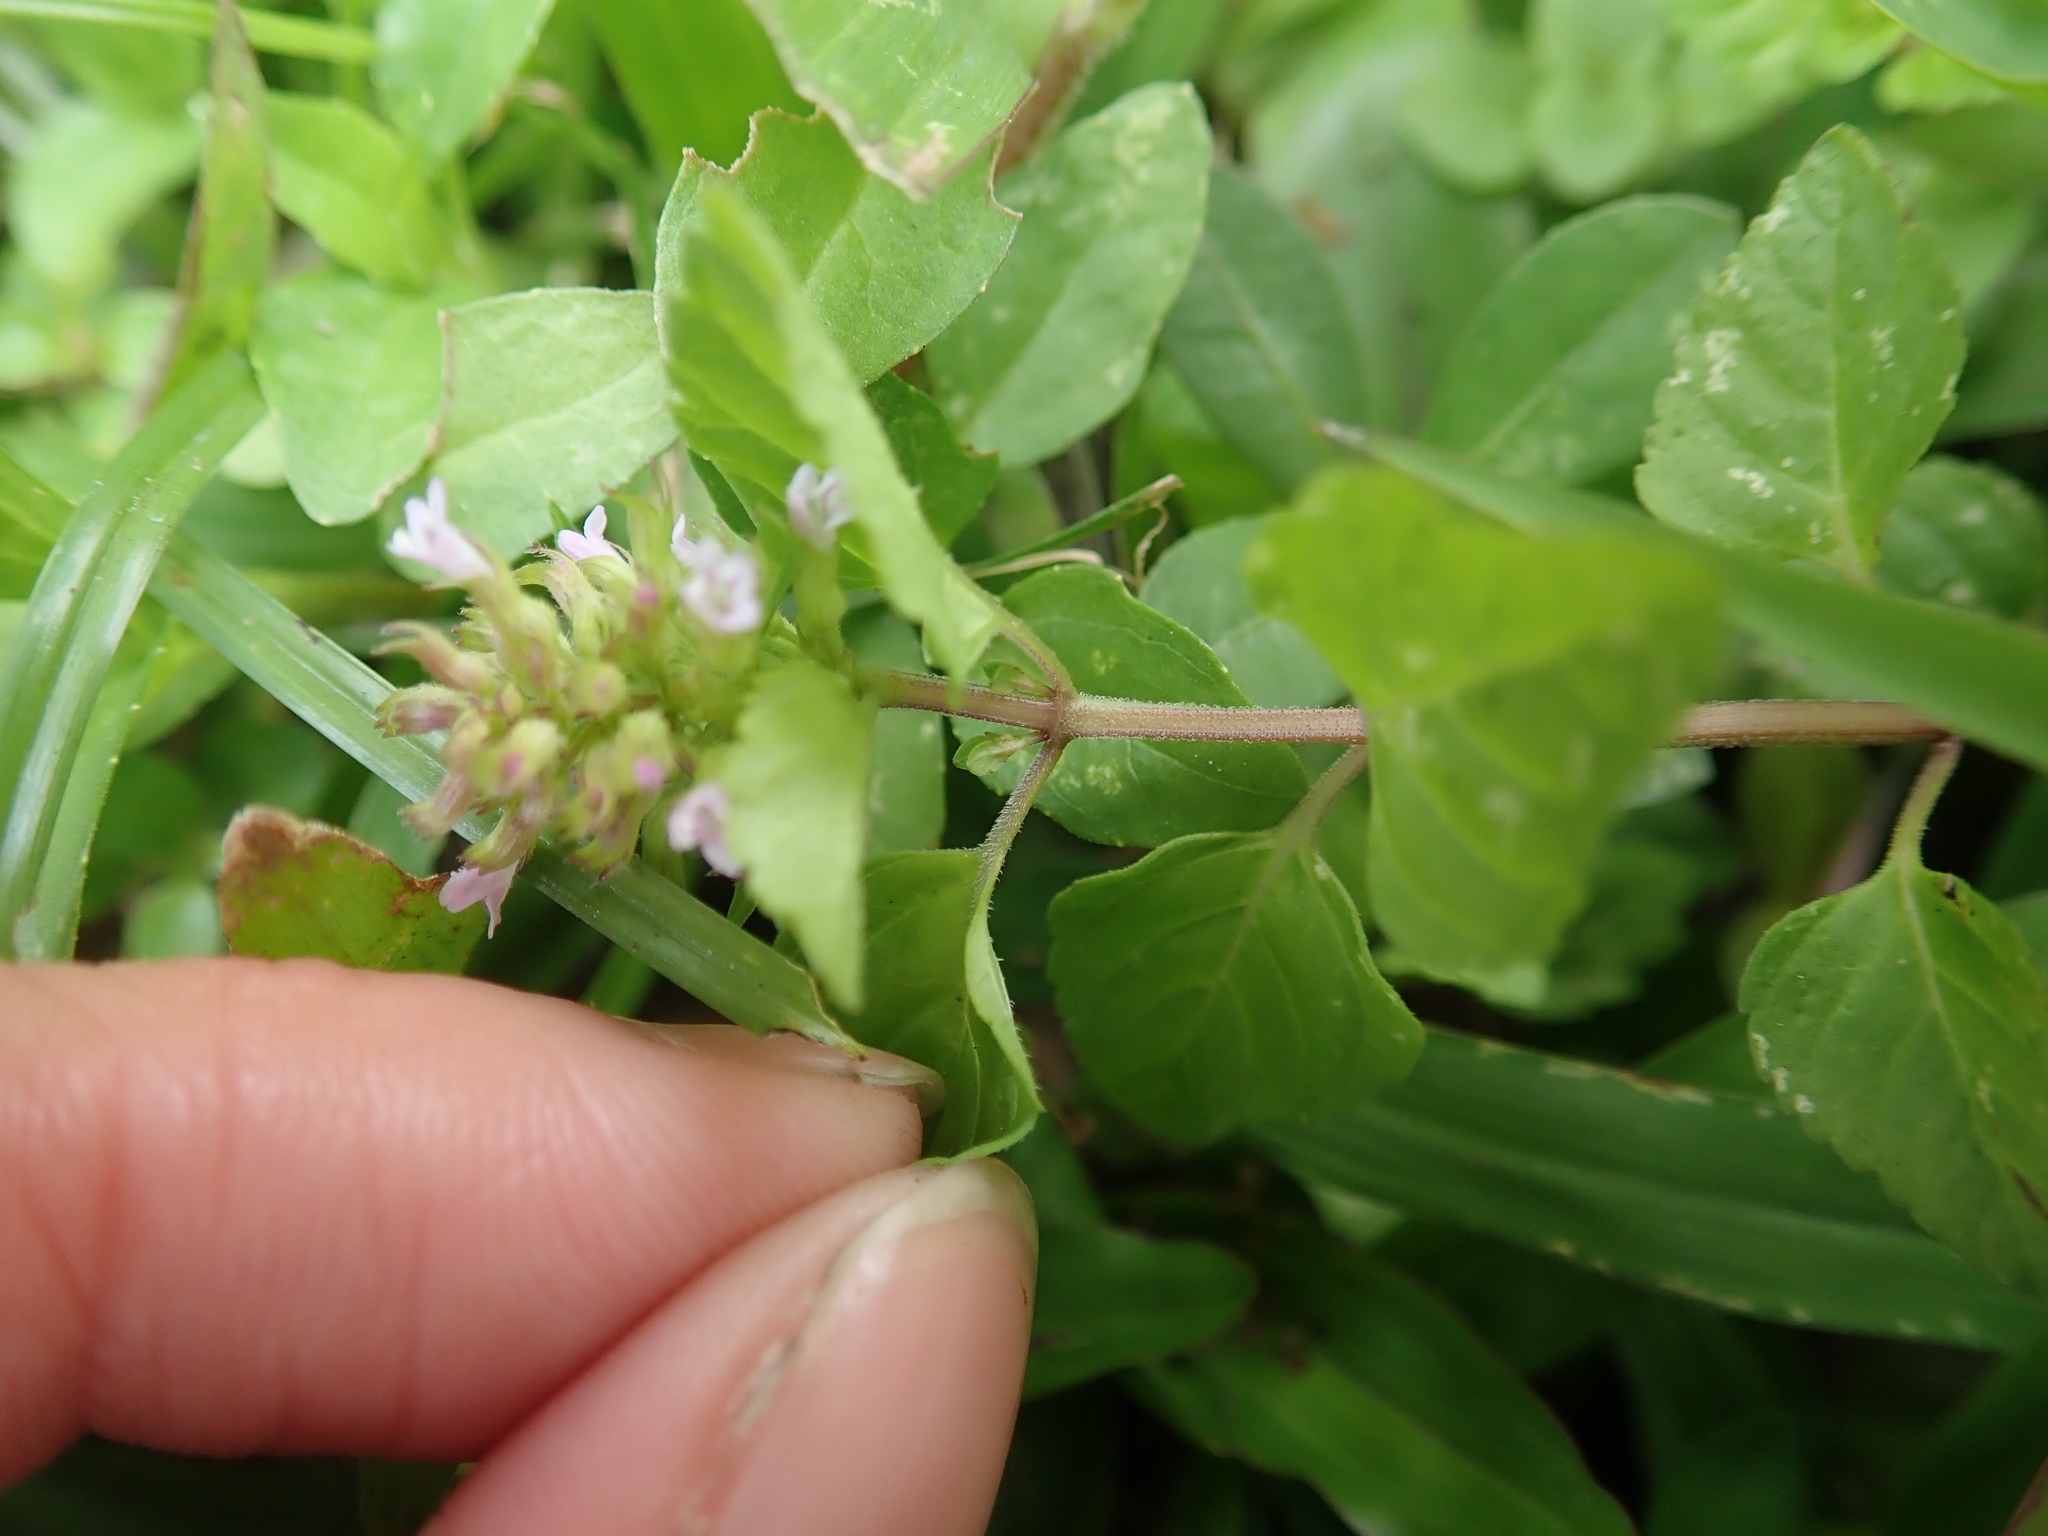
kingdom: Plantae
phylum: Tracheophyta
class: Magnoliopsida
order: Lamiales
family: Lamiaceae
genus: Clinopodium
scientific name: Clinopodium gracile
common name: Slender wild basil
